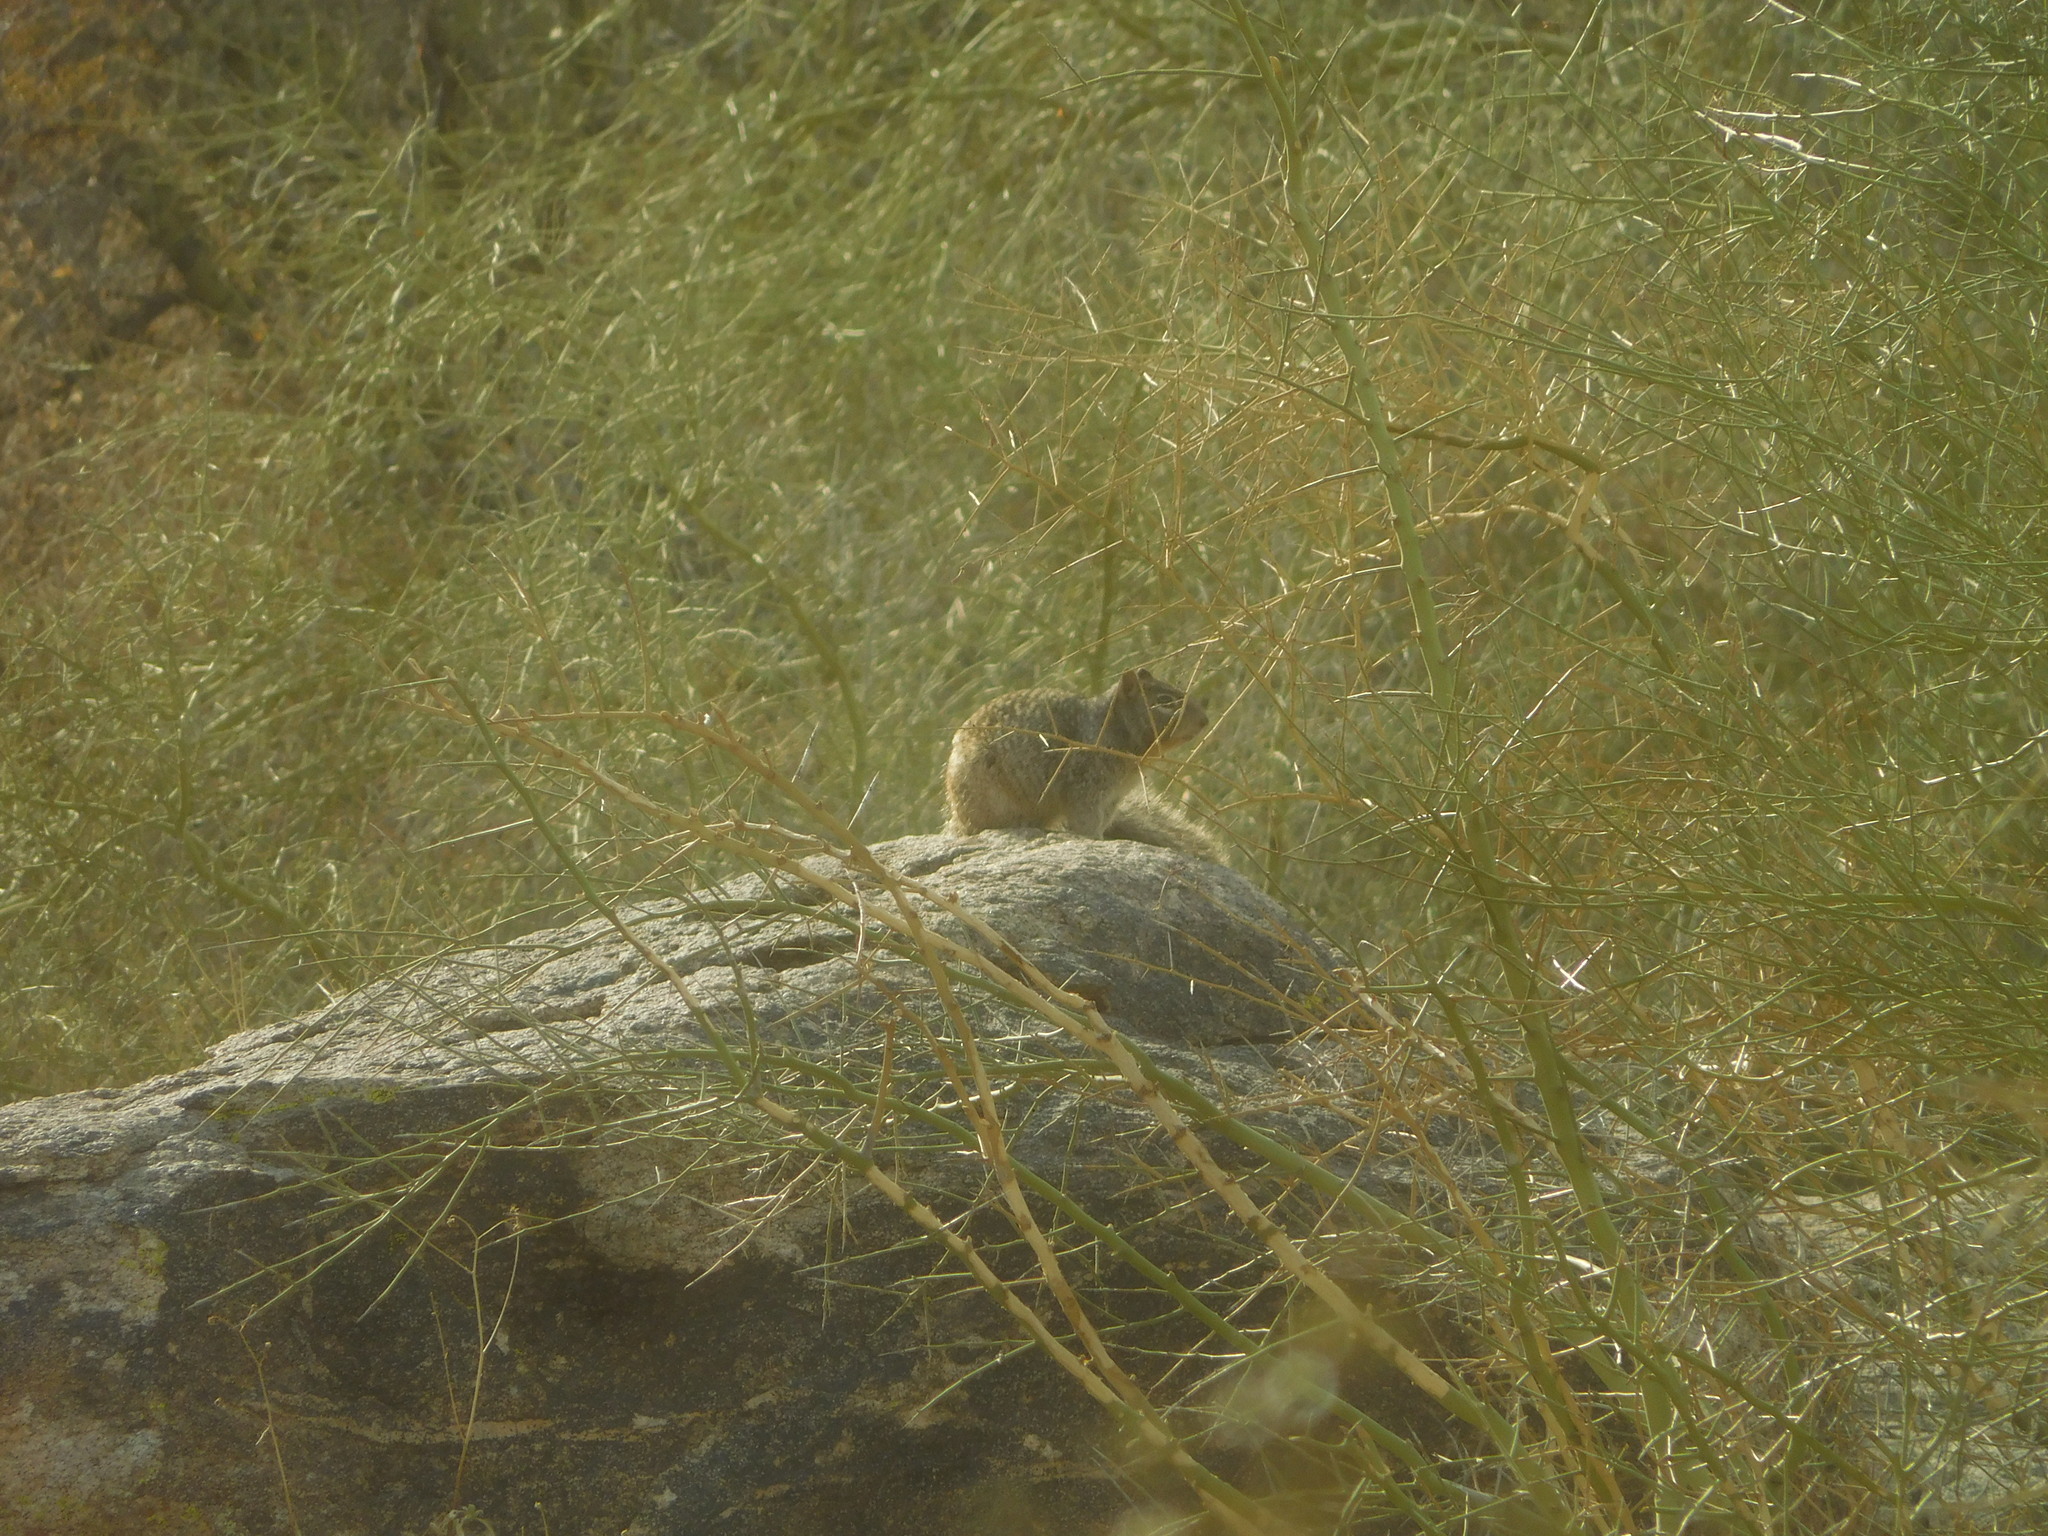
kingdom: Animalia
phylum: Chordata
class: Mammalia
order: Rodentia
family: Sciuridae
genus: Otospermophilus
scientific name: Otospermophilus variegatus
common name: Rock squirrel
